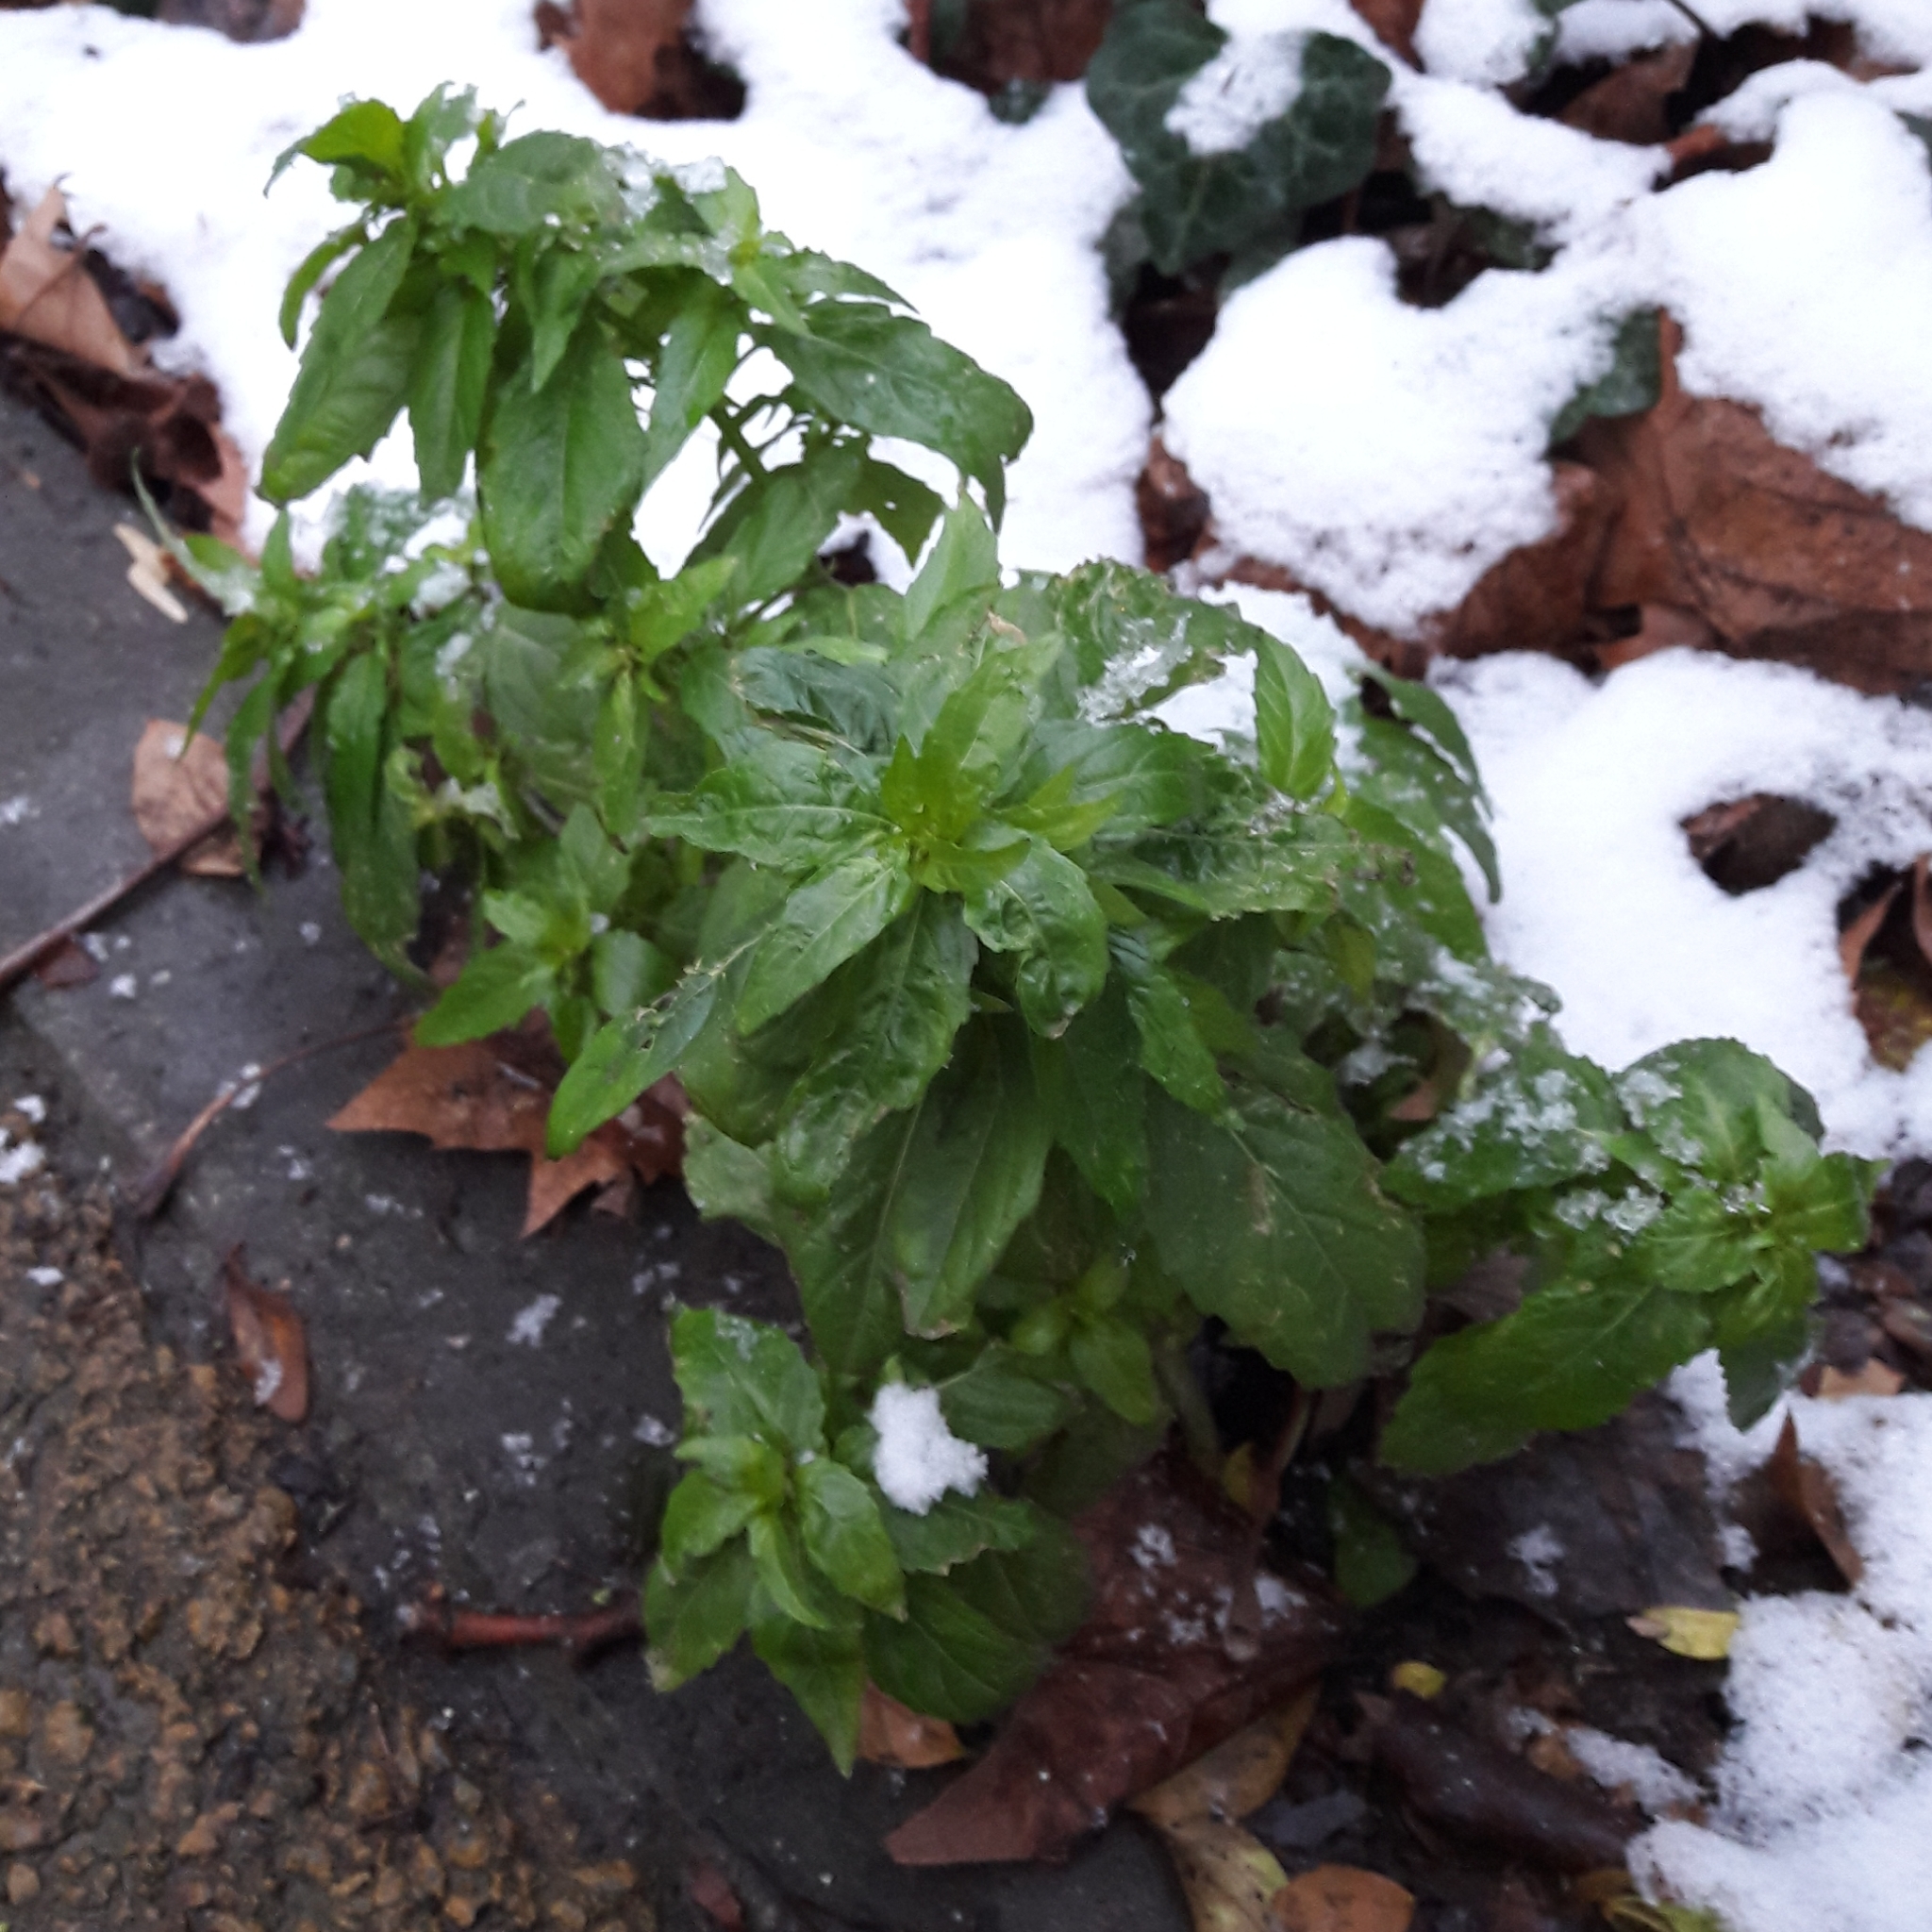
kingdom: Plantae
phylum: Tracheophyta
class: Magnoliopsida
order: Malpighiales
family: Euphorbiaceae
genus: Mercurialis
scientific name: Mercurialis annua
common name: Annual mercury
